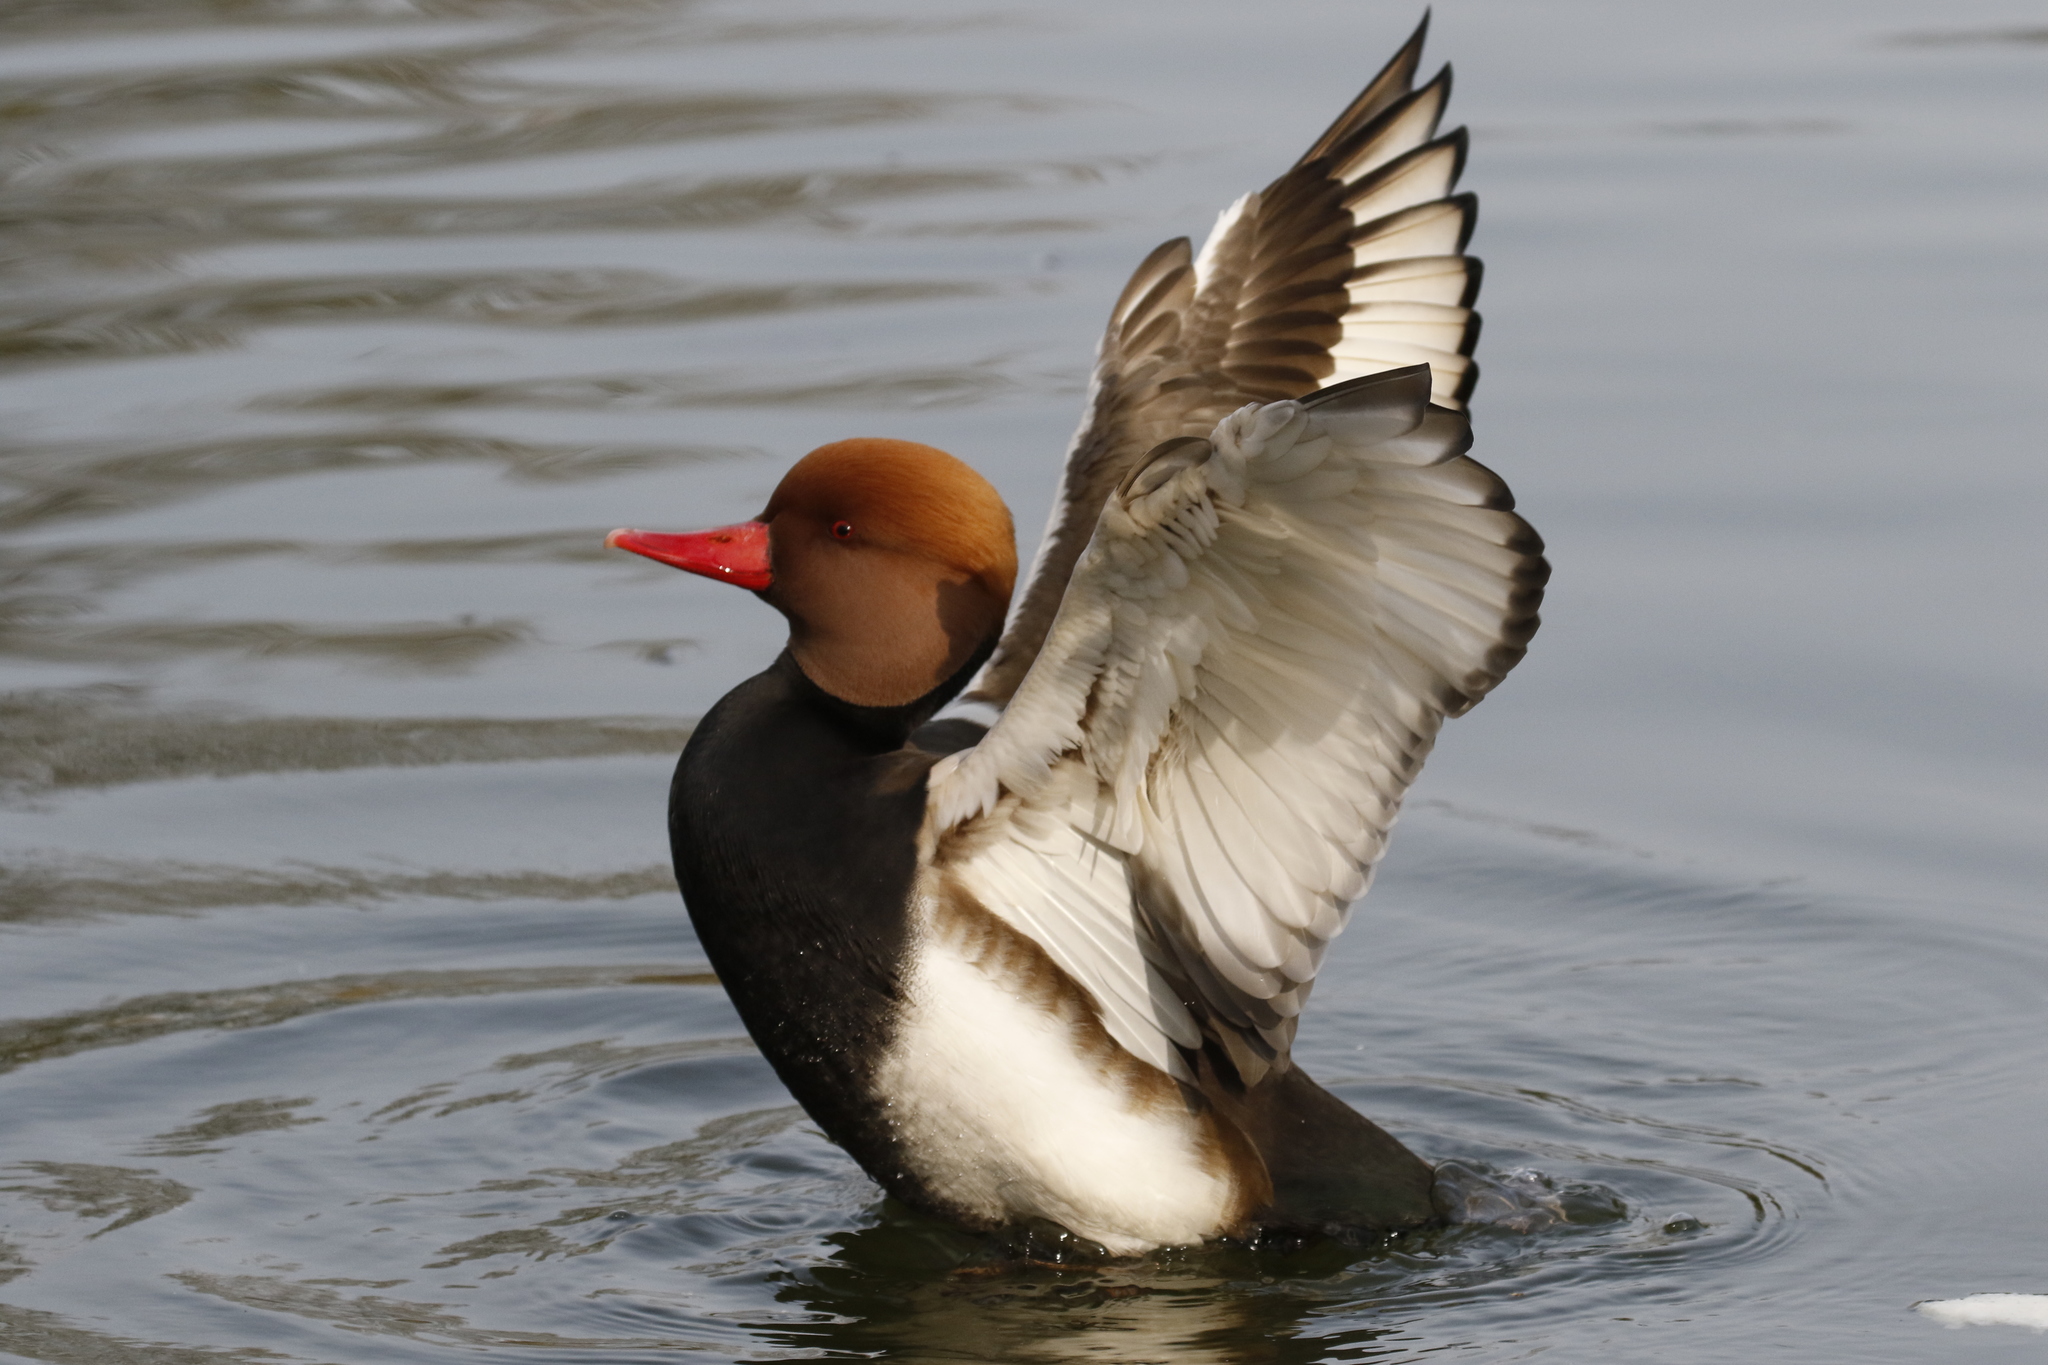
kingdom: Animalia
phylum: Chordata
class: Aves
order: Anseriformes
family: Anatidae
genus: Netta
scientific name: Netta rufina
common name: Red-crested pochard
